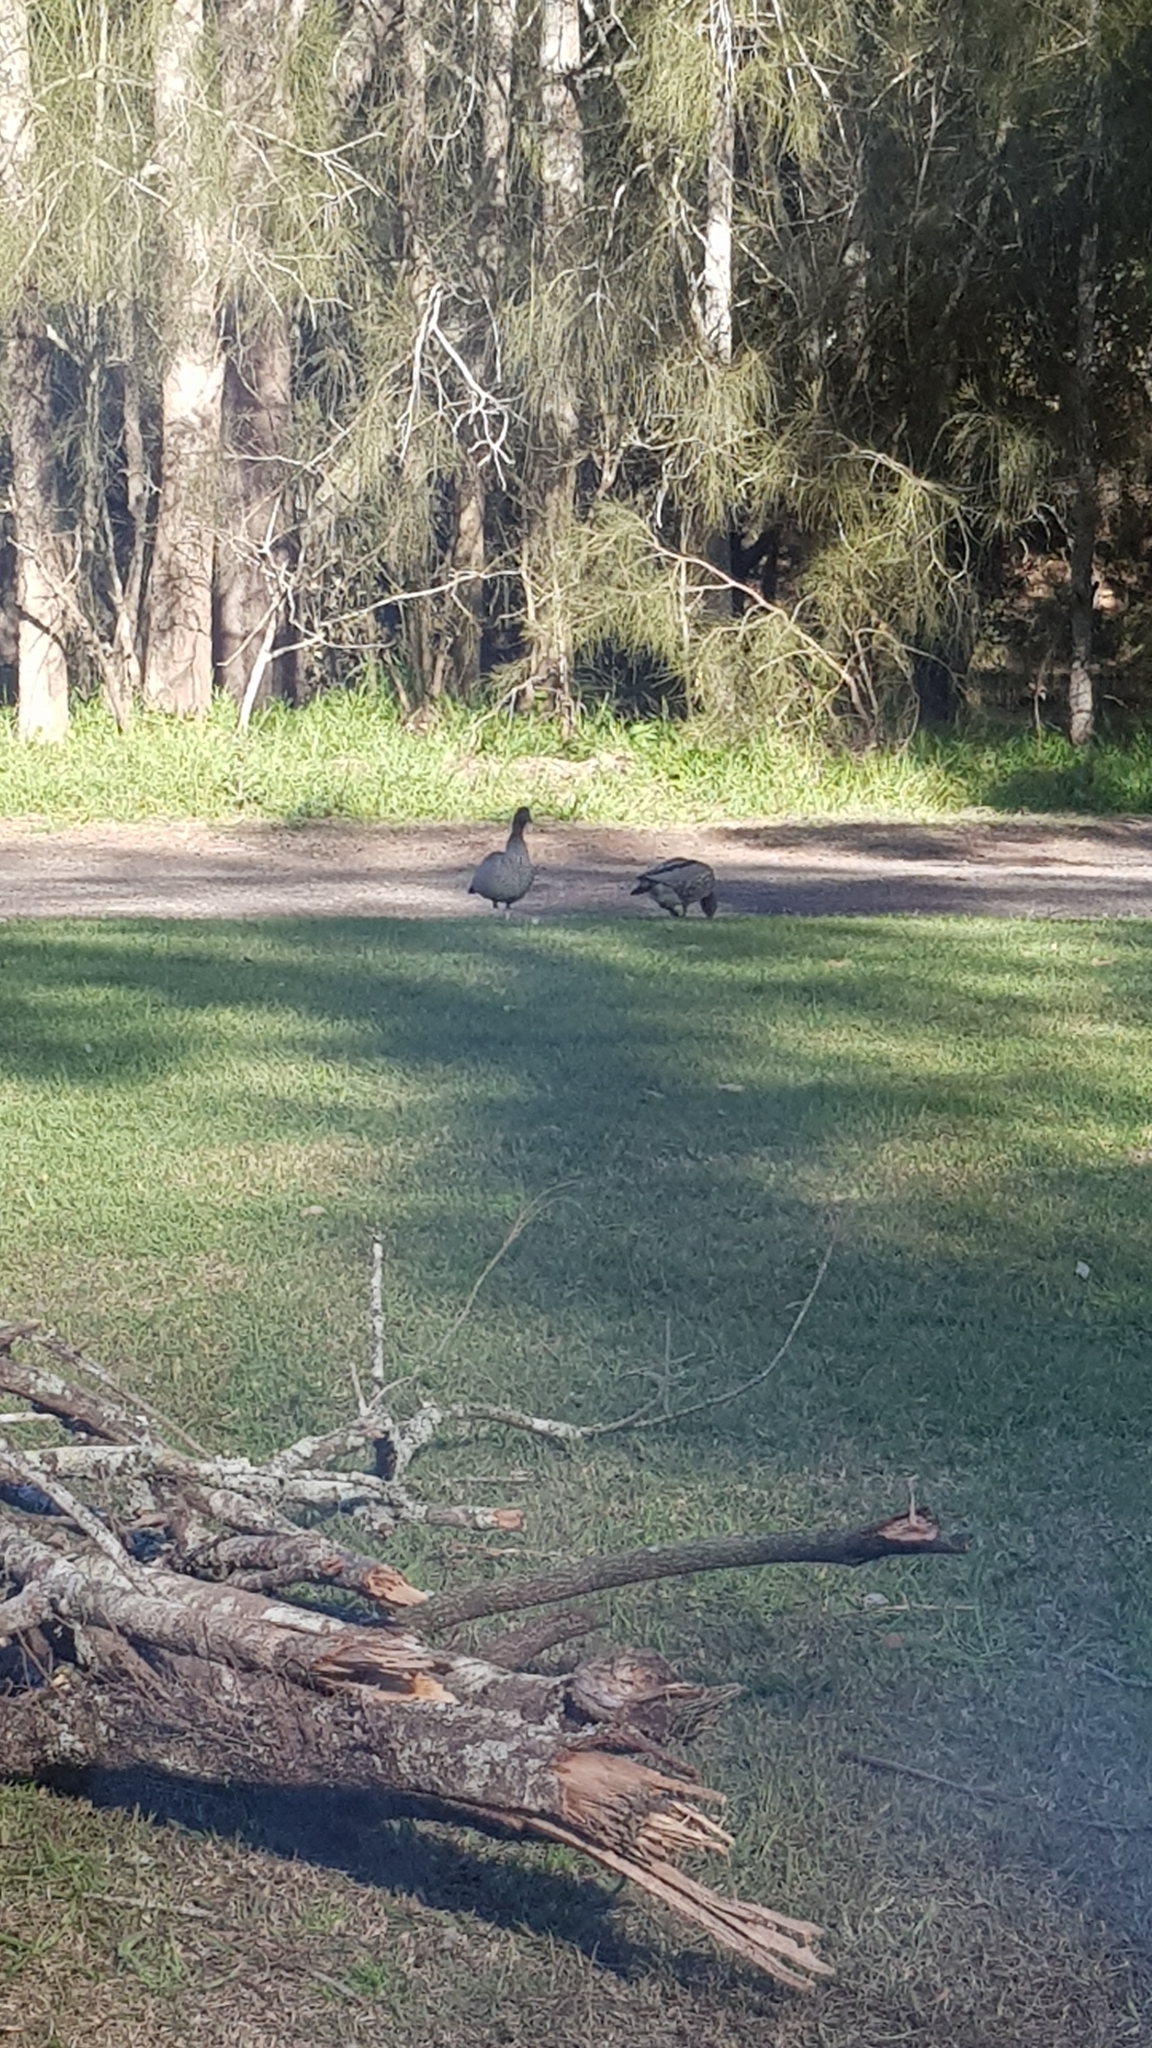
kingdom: Animalia
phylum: Chordata
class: Aves
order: Anseriformes
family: Anatidae
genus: Chenonetta
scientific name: Chenonetta jubata
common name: Maned duck
